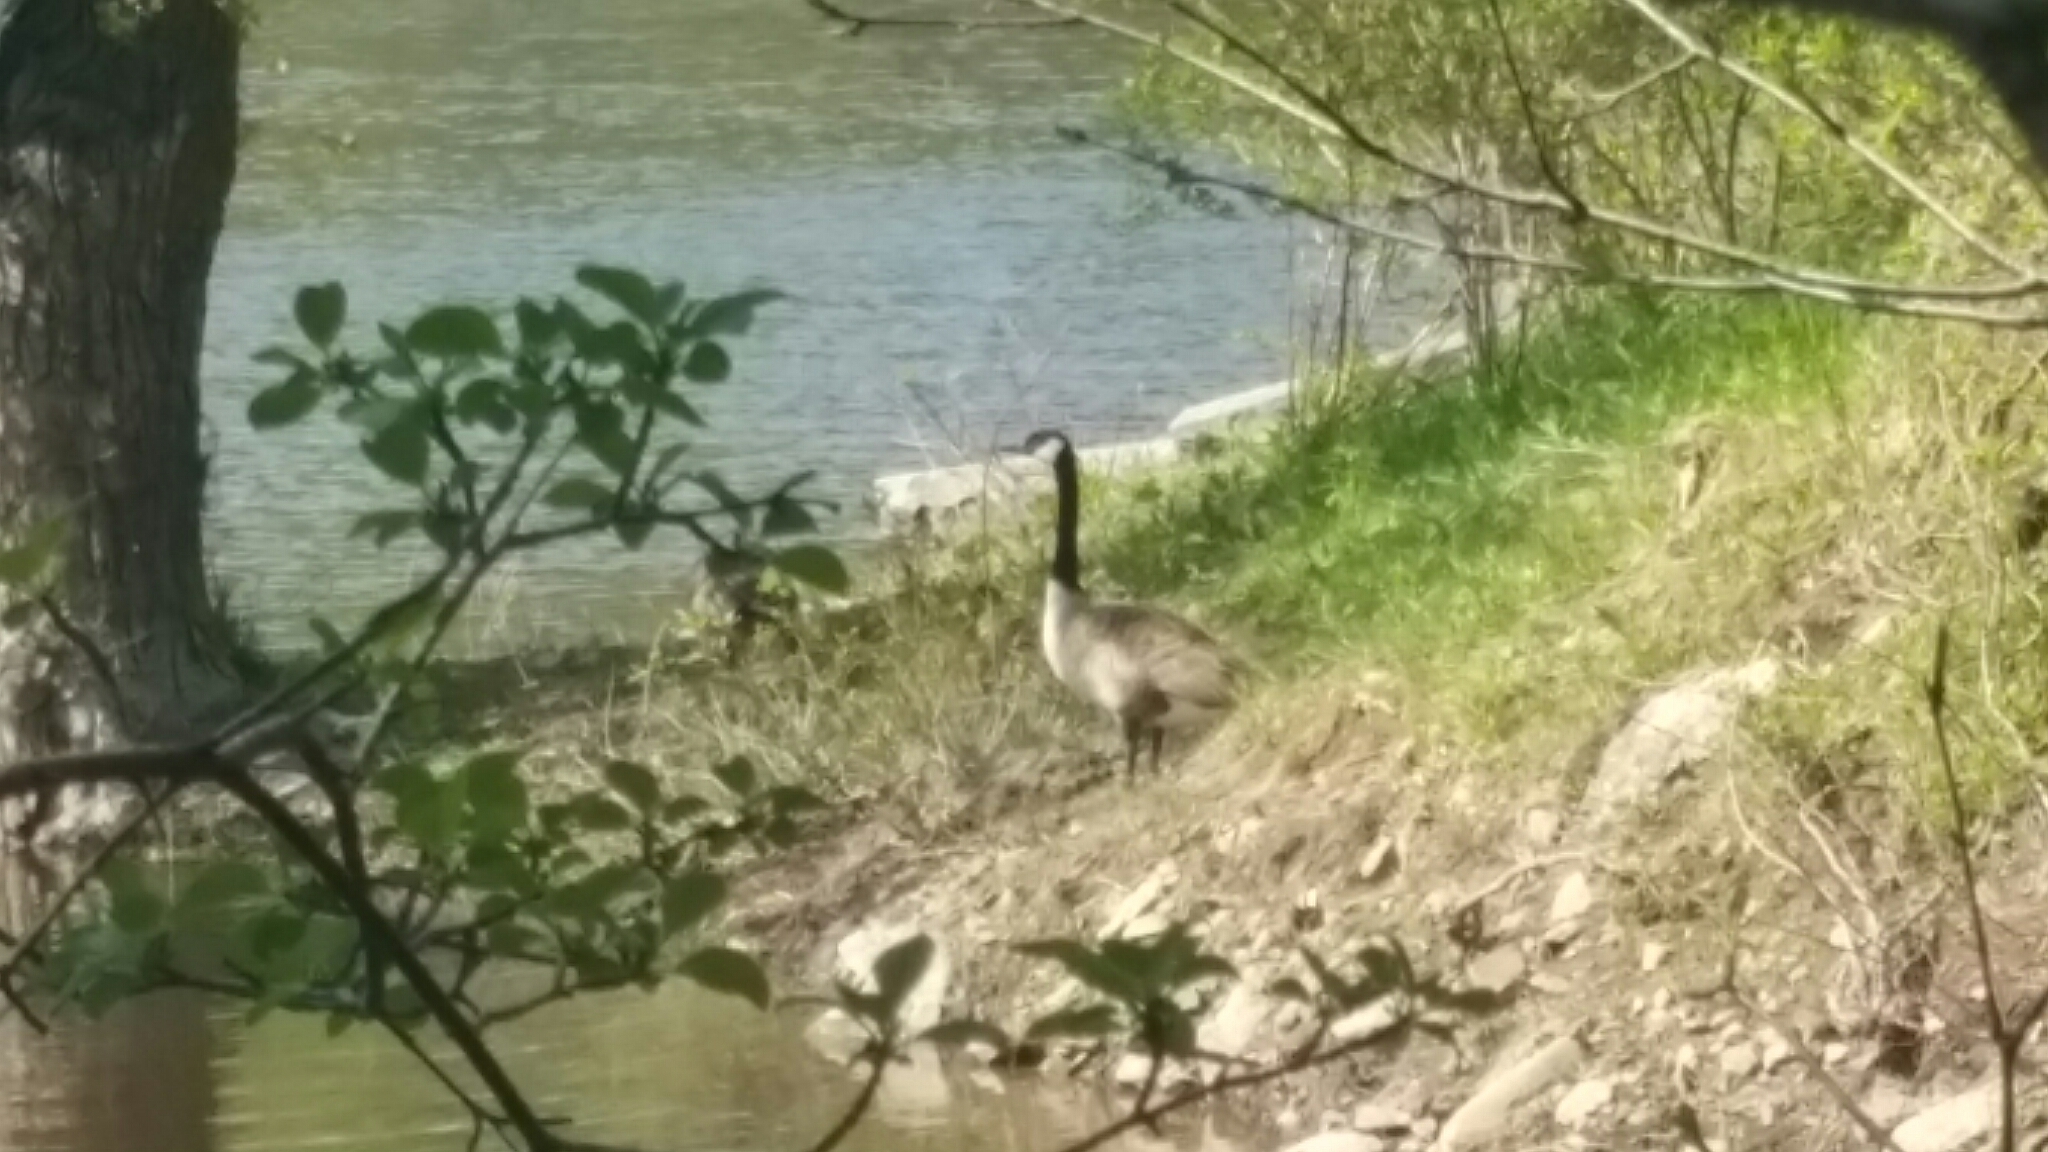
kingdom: Animalia
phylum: Chordata
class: Aves
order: Anseriformes
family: Anatidae
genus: Branta
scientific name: Branta canadensis
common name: Canada goose
